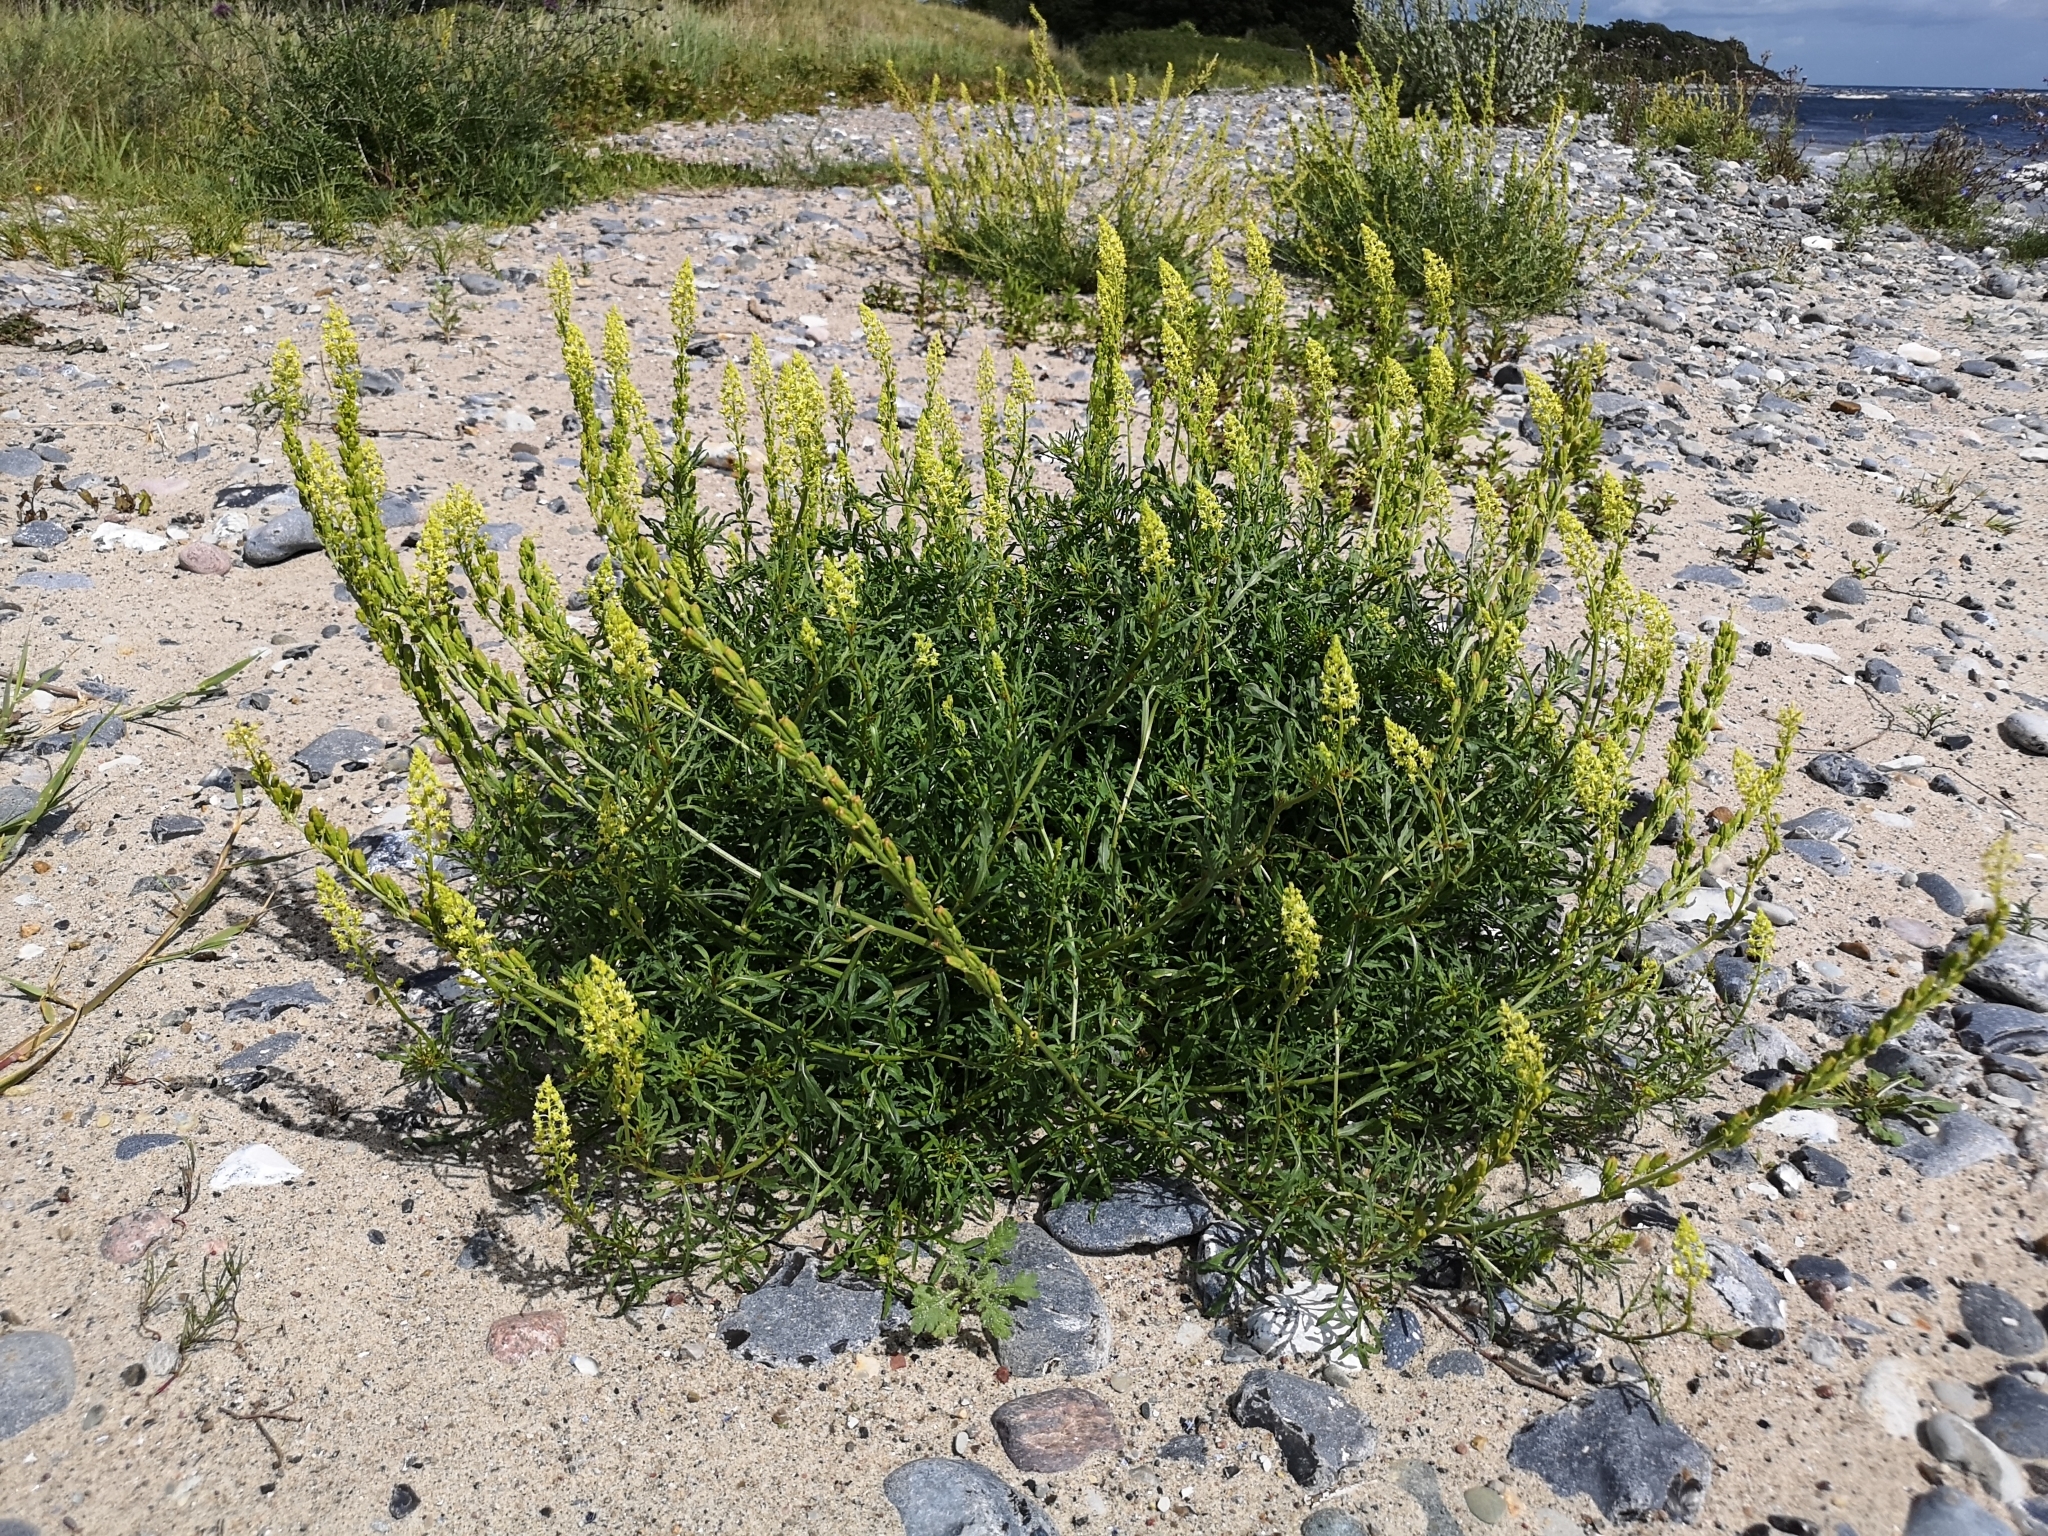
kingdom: Plantae
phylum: Tracheophyta
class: Magnoliopsida
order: Brassicales
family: Resedaceae
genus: Reseda
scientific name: Reseda lutea
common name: Wild mignonette
